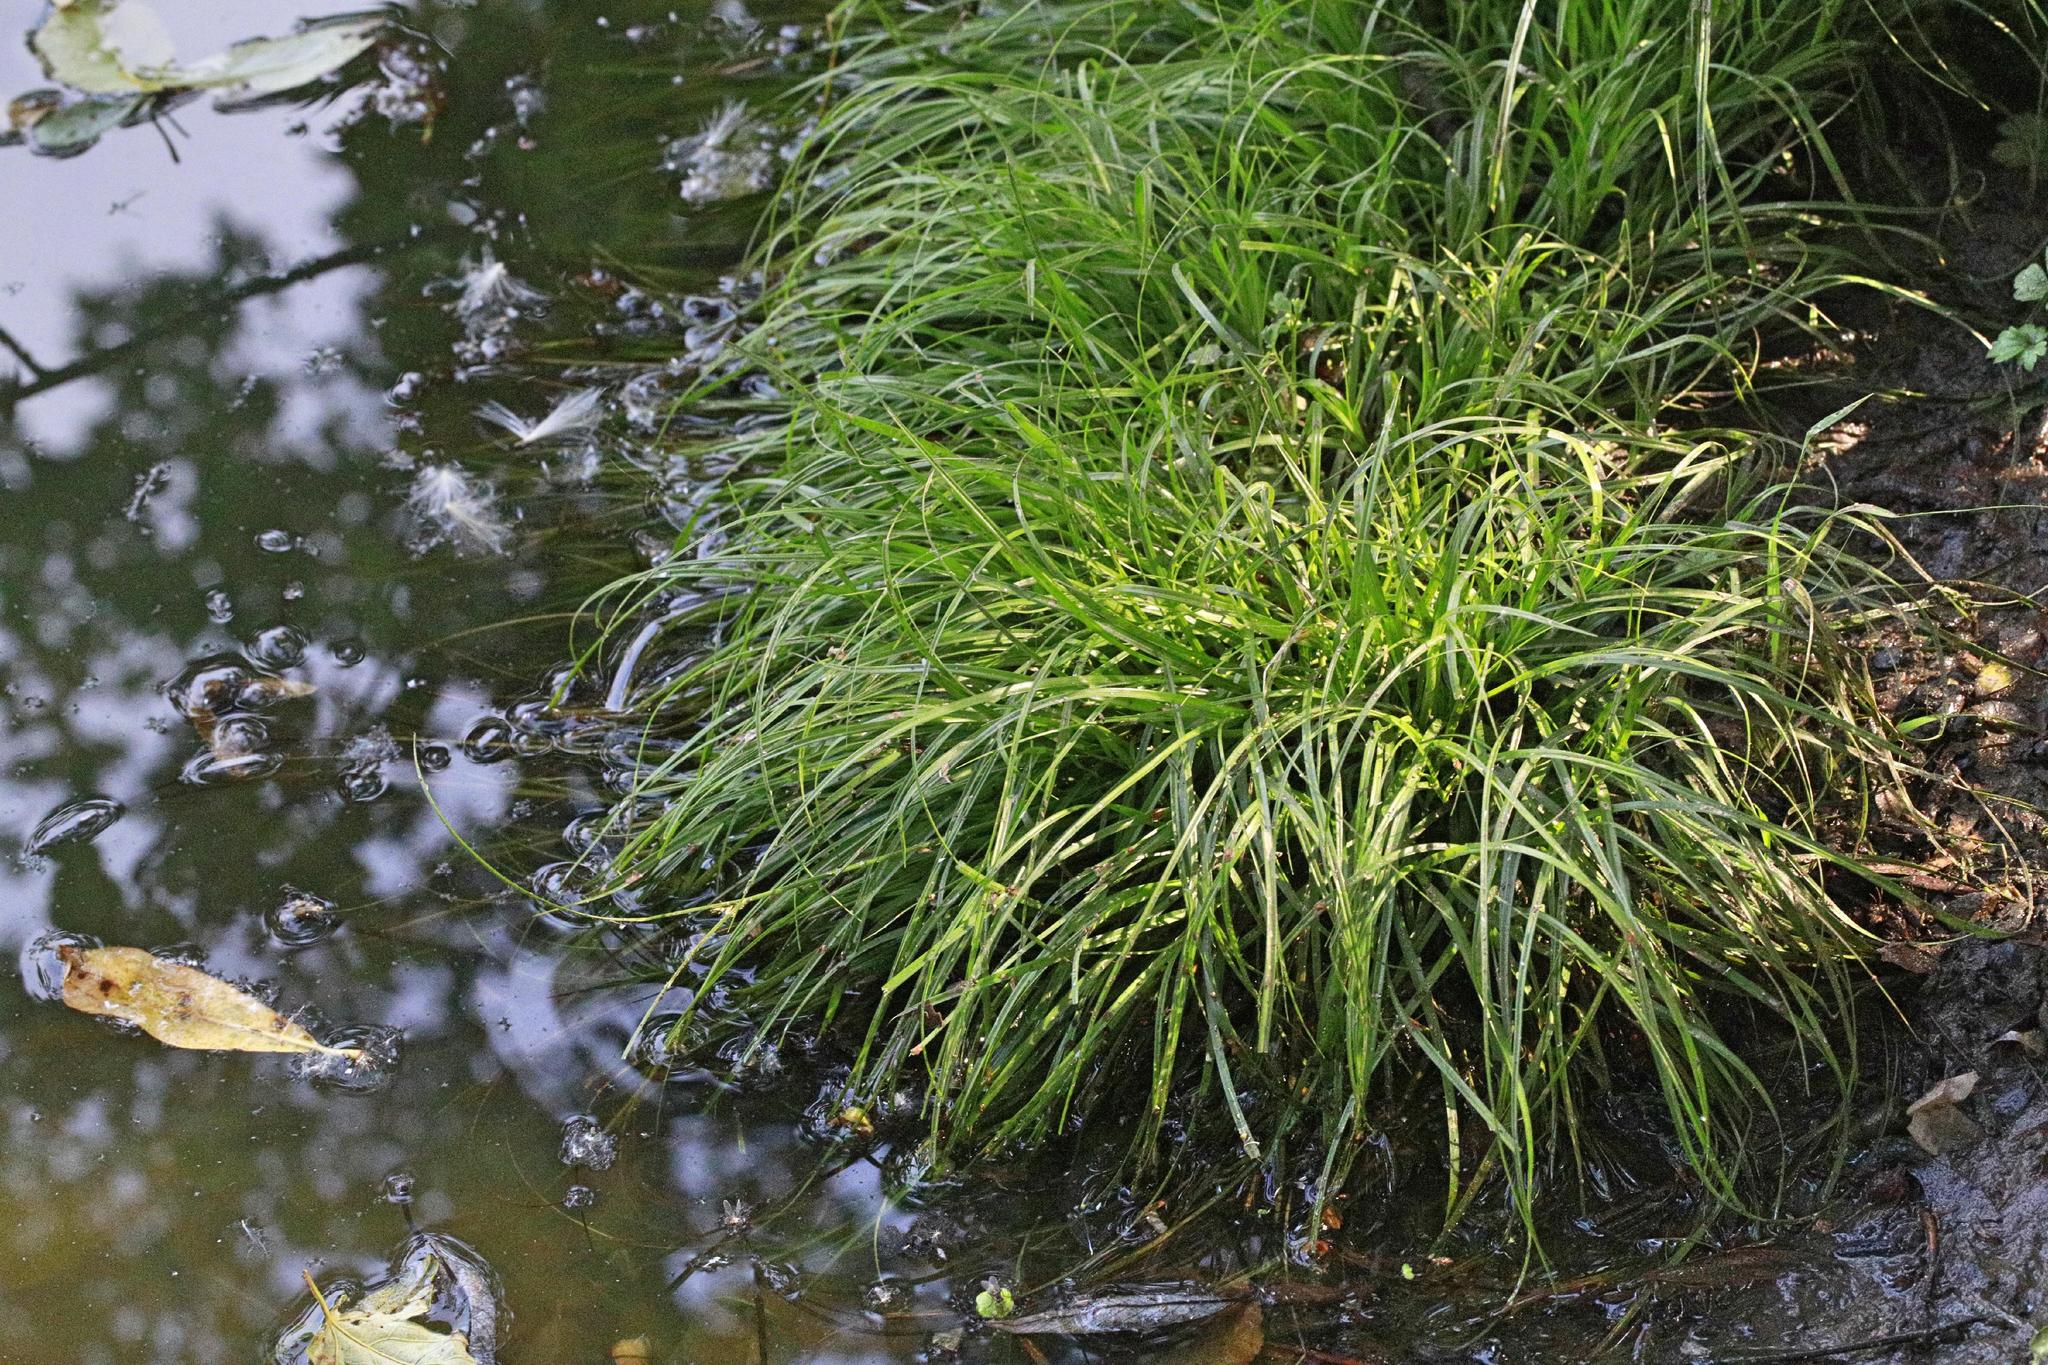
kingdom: Plantae
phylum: Tracheophyta
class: Liliopsida
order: Poales
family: Cyperaceae
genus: Carex
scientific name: Carex remota
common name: Remote sedge
